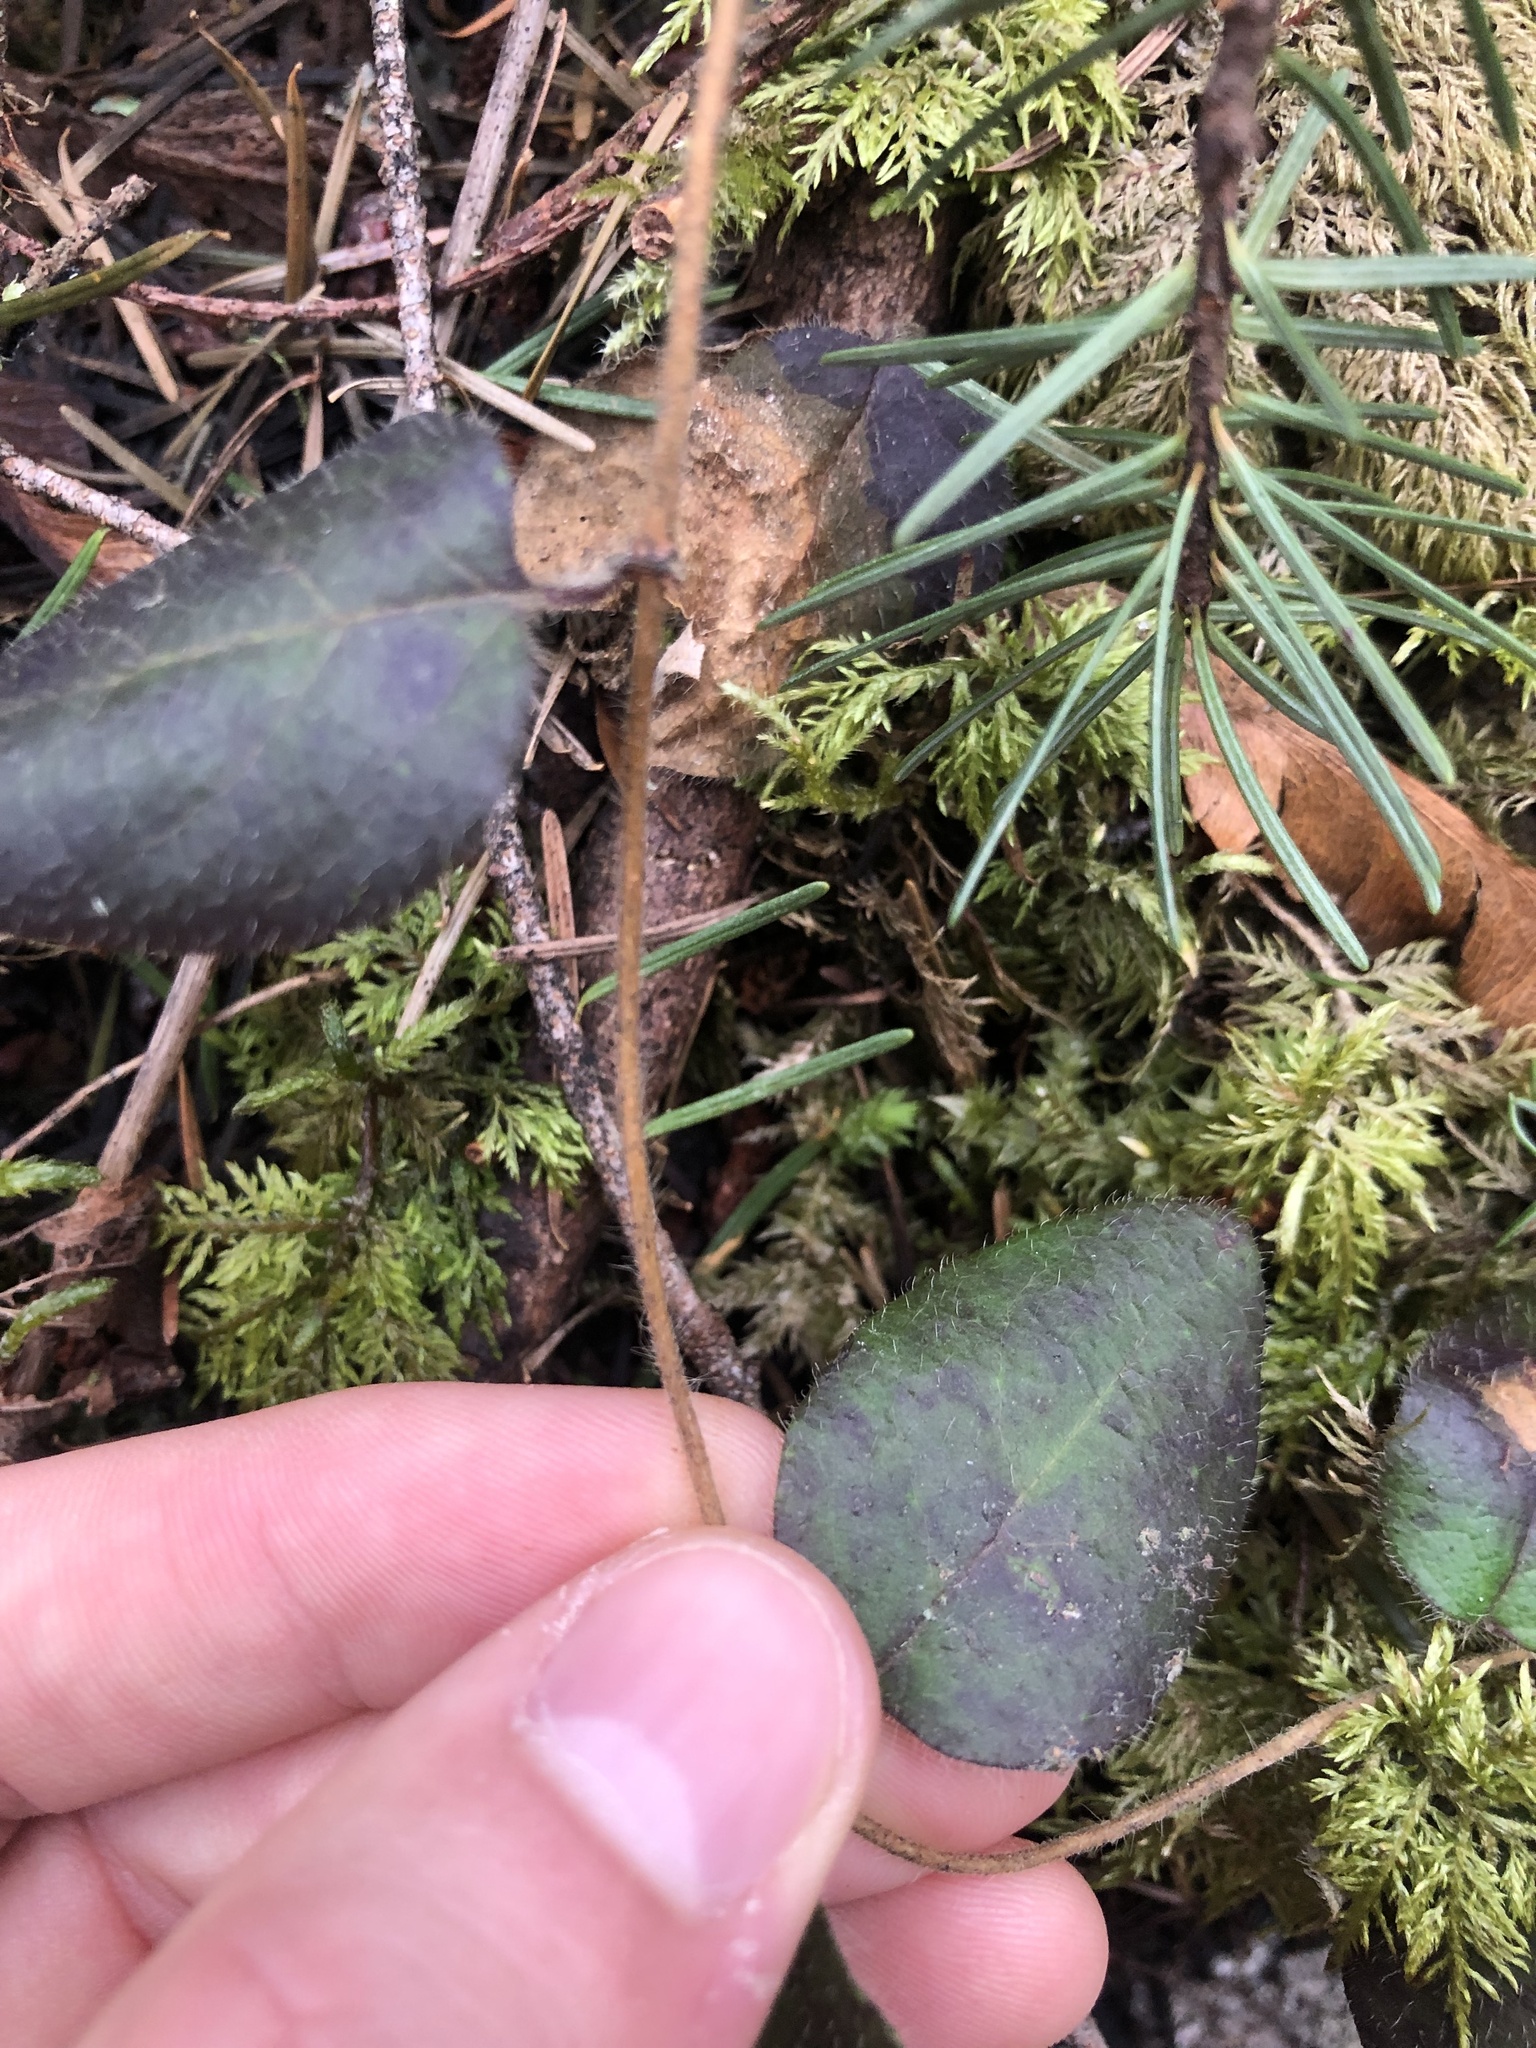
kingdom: Plantae
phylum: Tracheophyta
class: Magnoliopsida
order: Dipsacales
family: Caprifoliaceae
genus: Lonicera
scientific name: Lonicera hispidula
